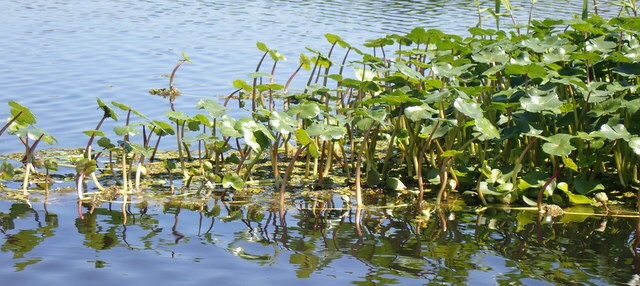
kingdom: Plantae
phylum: Tracheophyta
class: Magnoliopsida
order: Apiales
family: Araliaceae
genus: Hydrocotyle
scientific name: Hydrocotyle ranunculoides
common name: Floating pennywort
